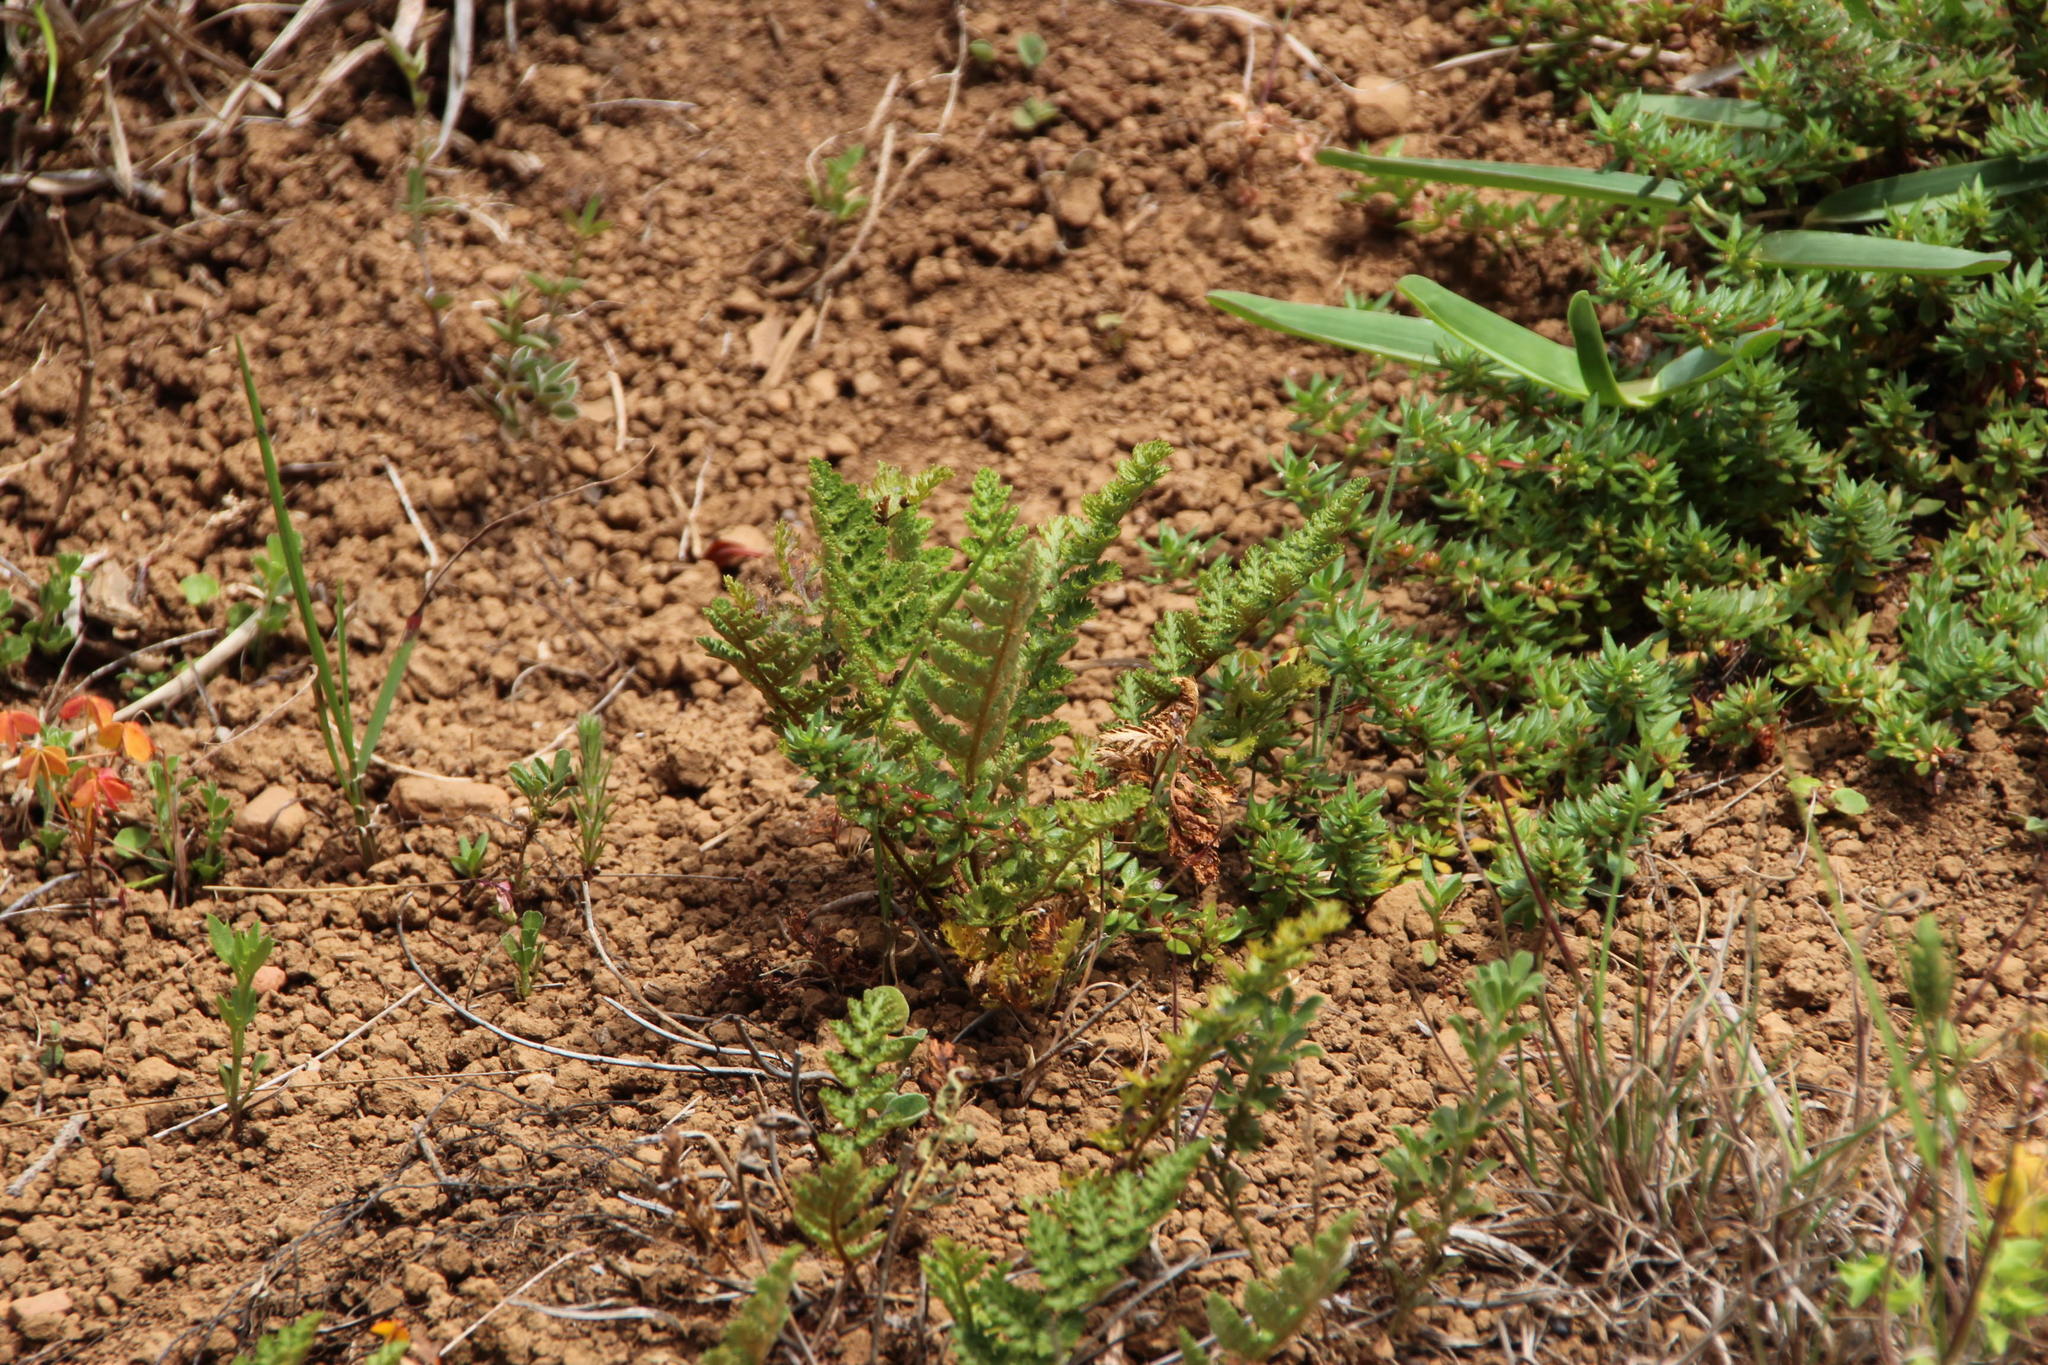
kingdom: Plantae
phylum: Tracheophyta
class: Polypodiopsida
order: Schizaeales
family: Anemiaceae
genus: Anemia
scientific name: Anemia caffrorum
